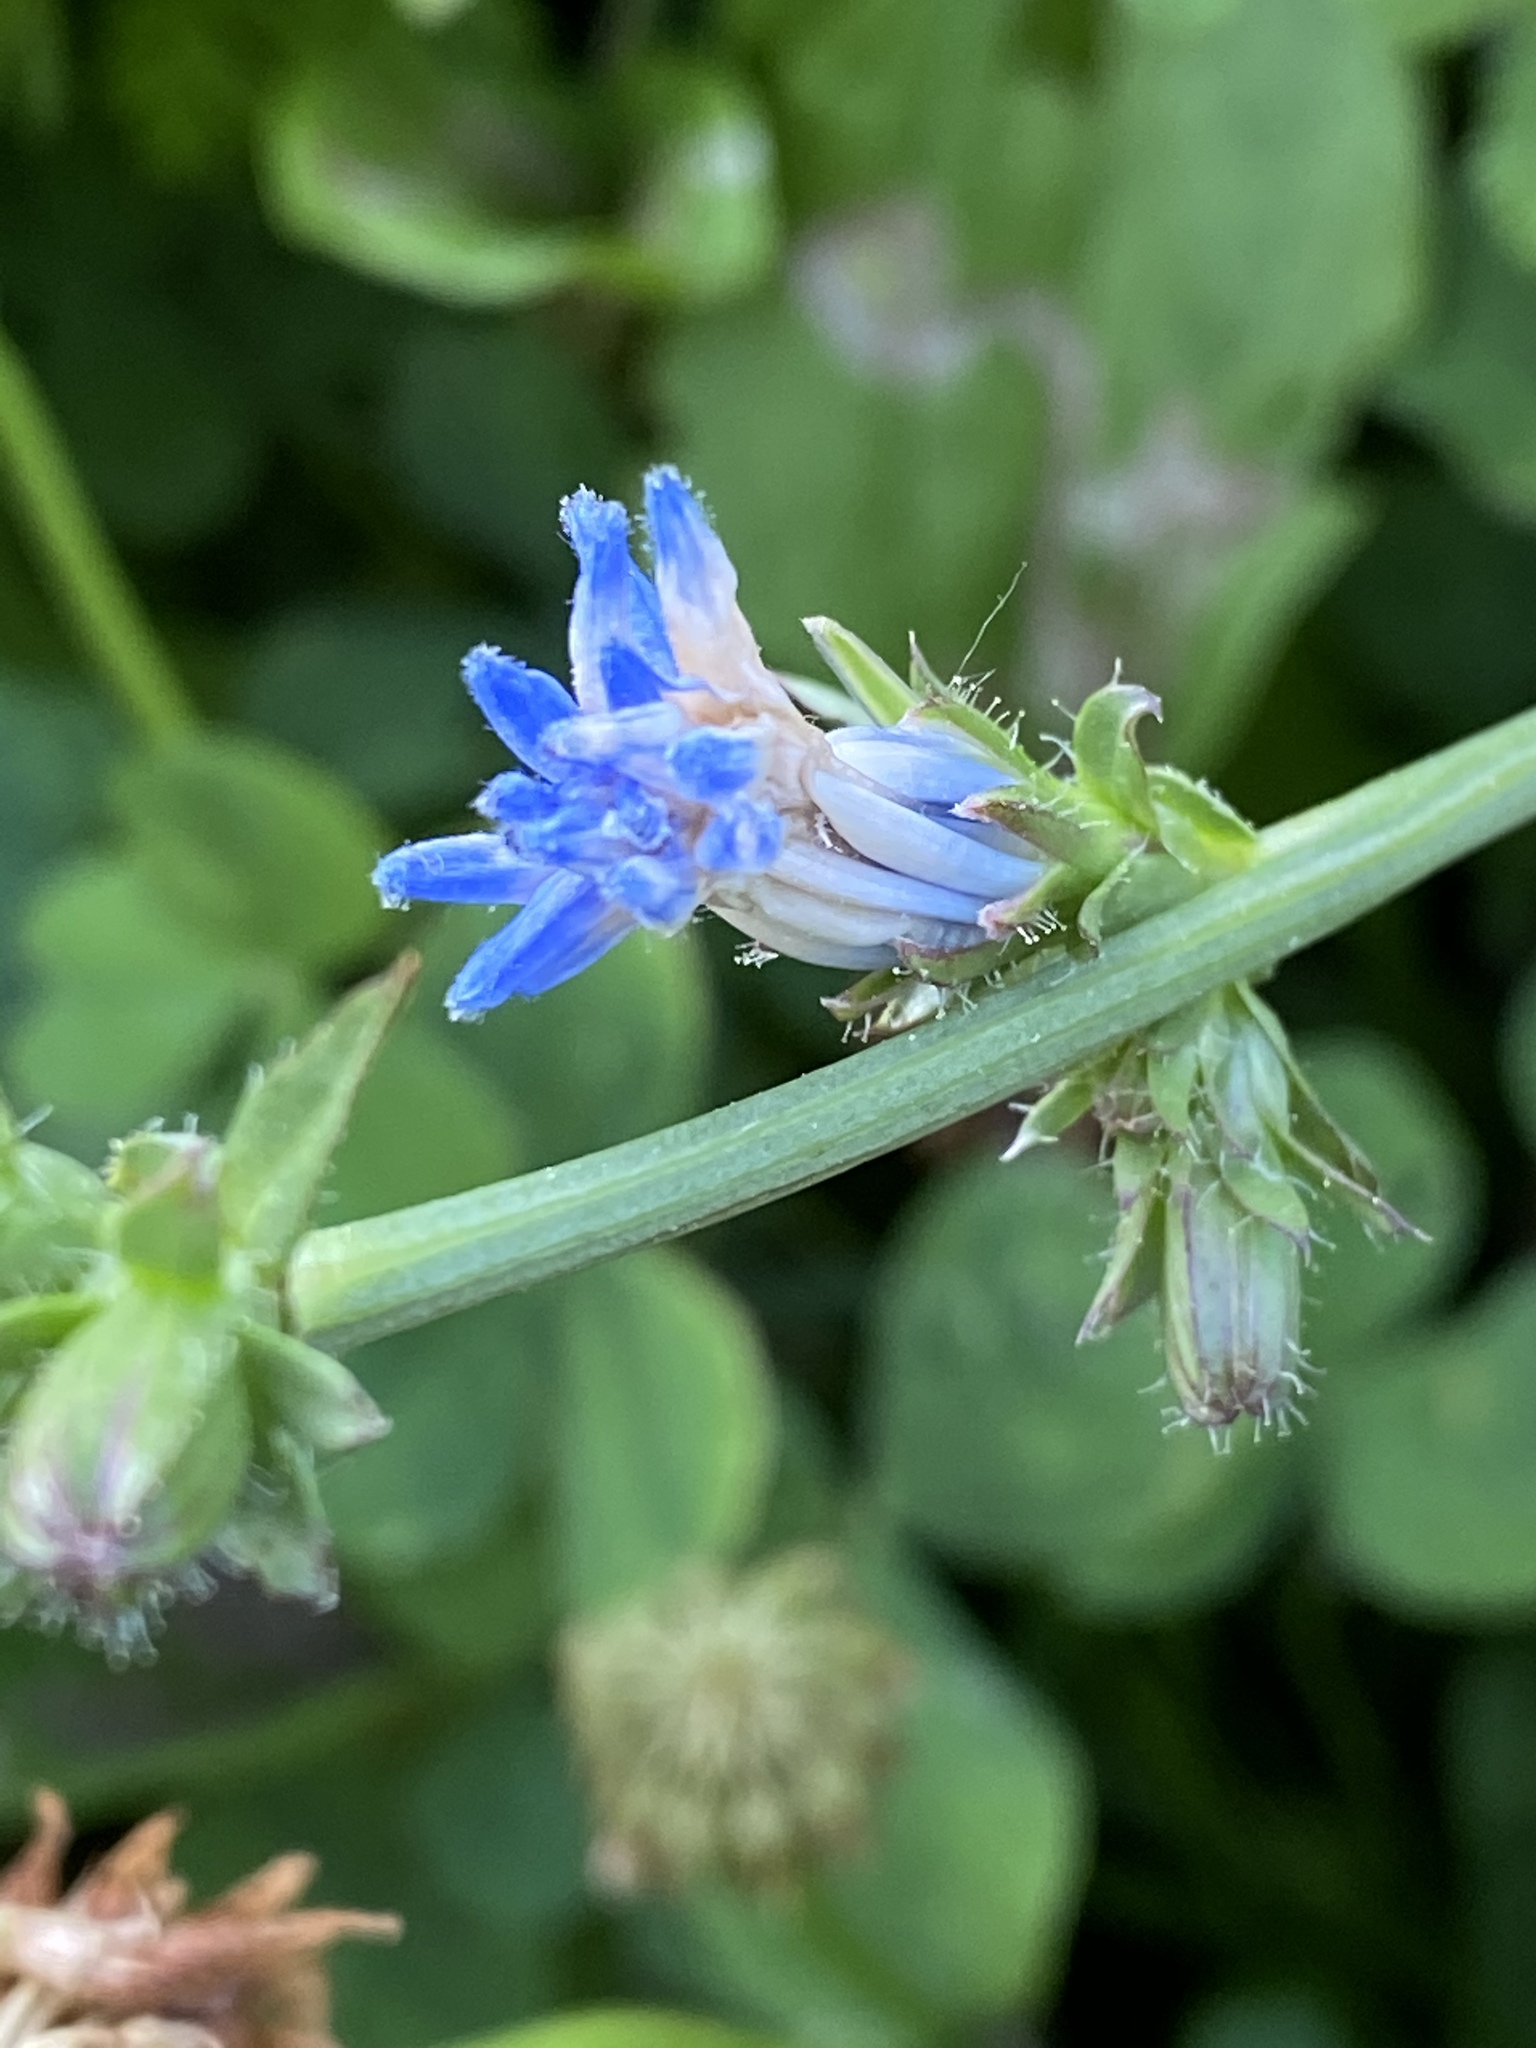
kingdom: Plantae
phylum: Tracheophyta
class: Magnoliopsida
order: Asterales
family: Asteraceae
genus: Cichorium
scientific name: Cichorium intybus
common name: Chicory
